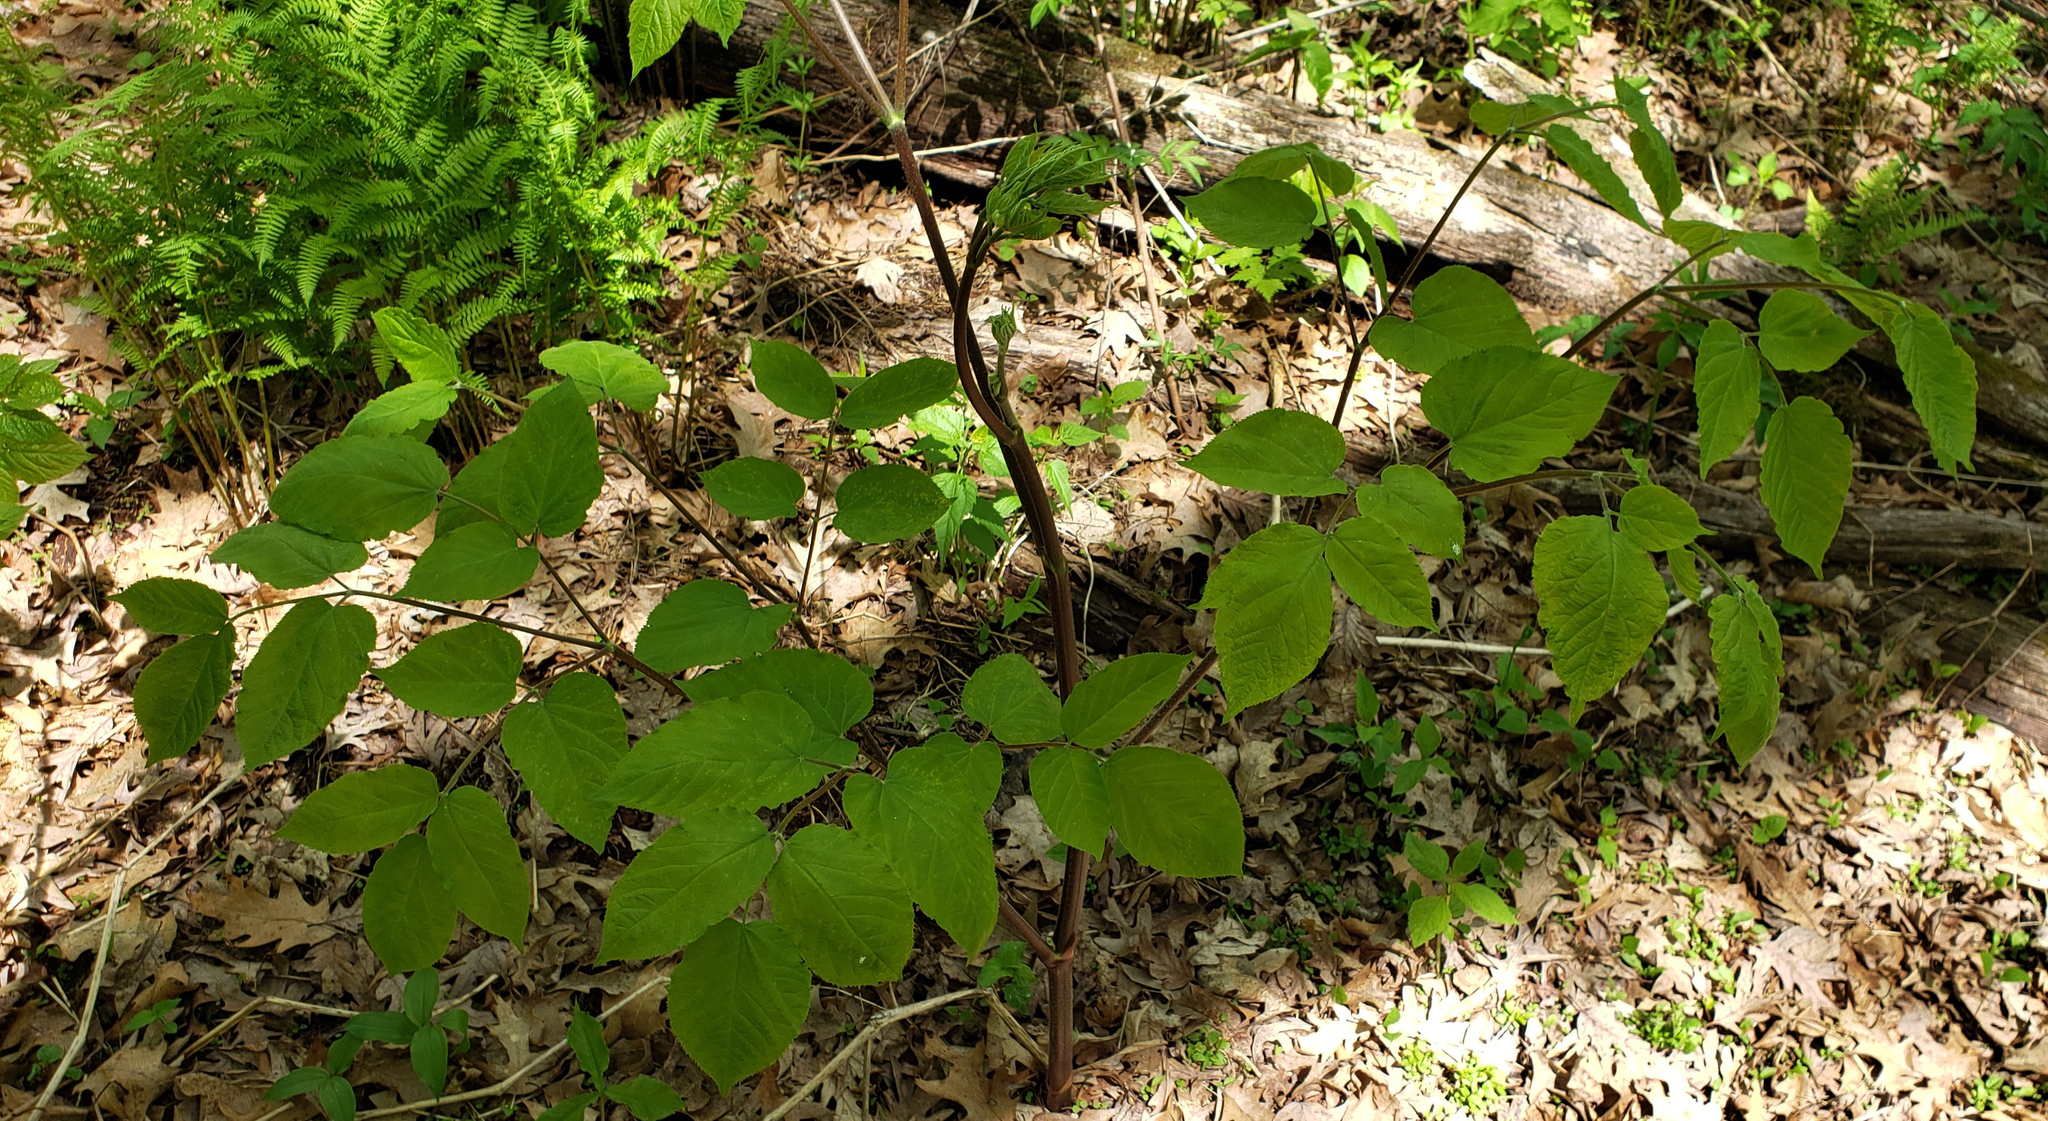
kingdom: Plantae
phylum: Tracheophyta
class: Magnoliopsida
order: Apiales
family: Araliaceae
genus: Aralia
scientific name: Aralia racemosa
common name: American-spikenard
